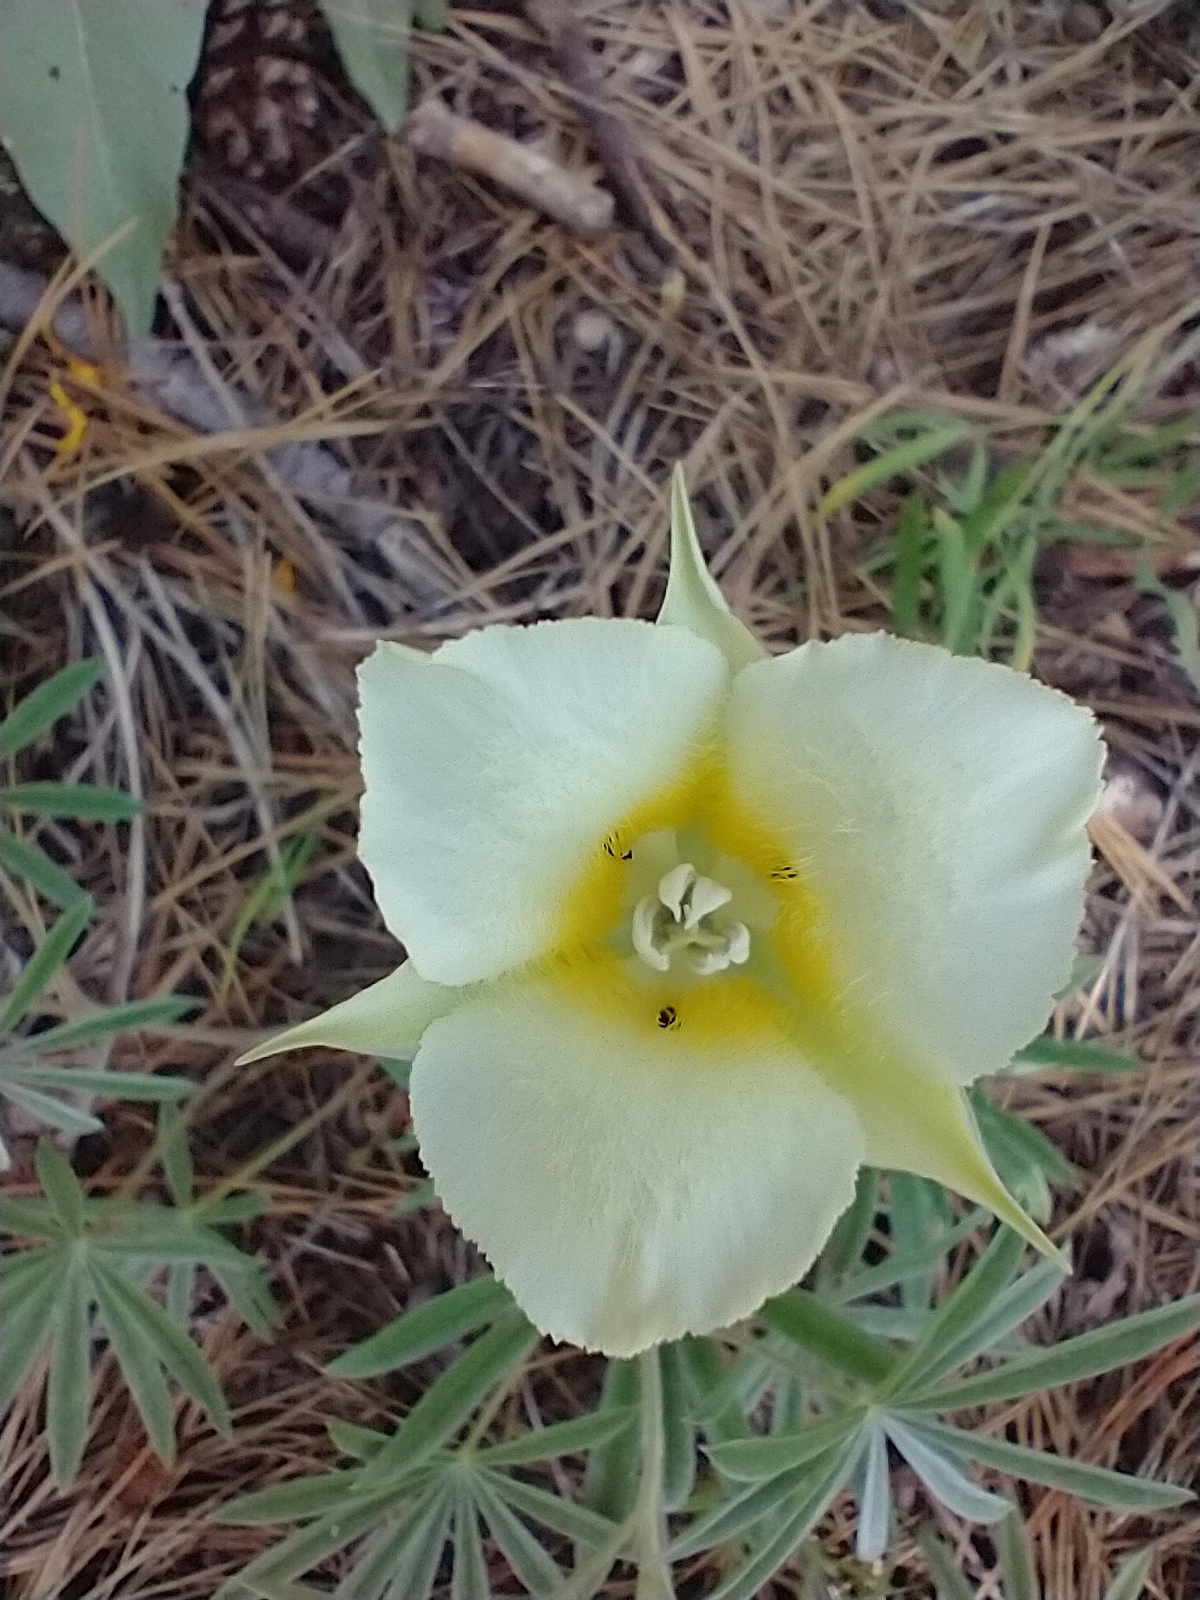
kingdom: Plantae
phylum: Tracheophyta
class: Liliopsida
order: Liliales
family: Liliaceae
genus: Calochortus
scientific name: Calochortus apiculatus
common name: Baker's mariposa lily
